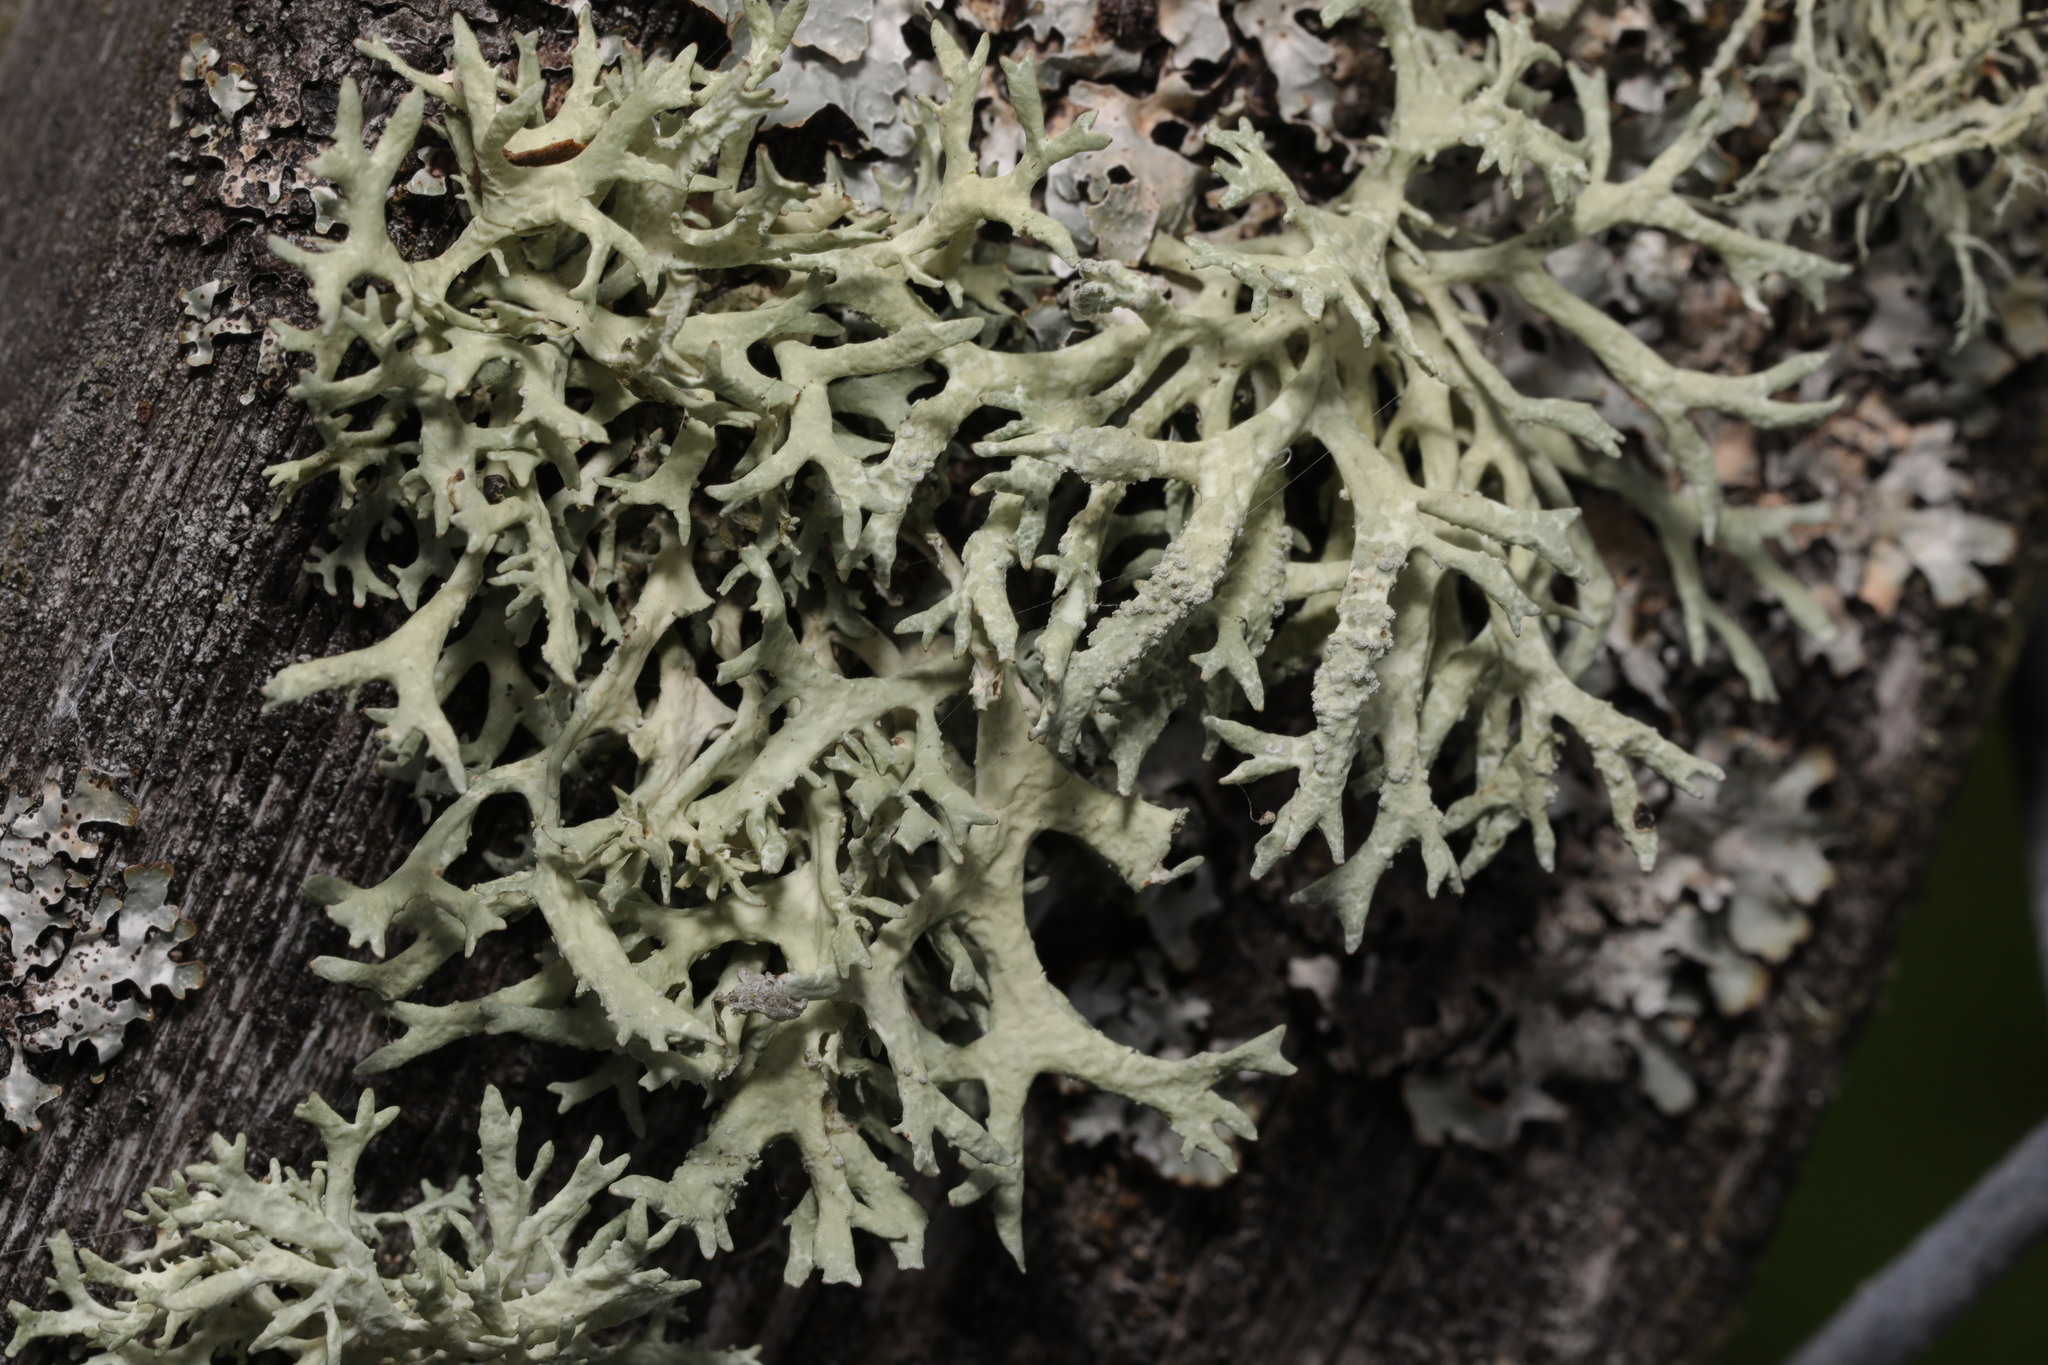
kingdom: Fungi
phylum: Ascomycota
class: Lecanoromycetes
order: Lecanorales
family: Parmeliaceae
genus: Evernia
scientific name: Evernia prunastri
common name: Oak moss
